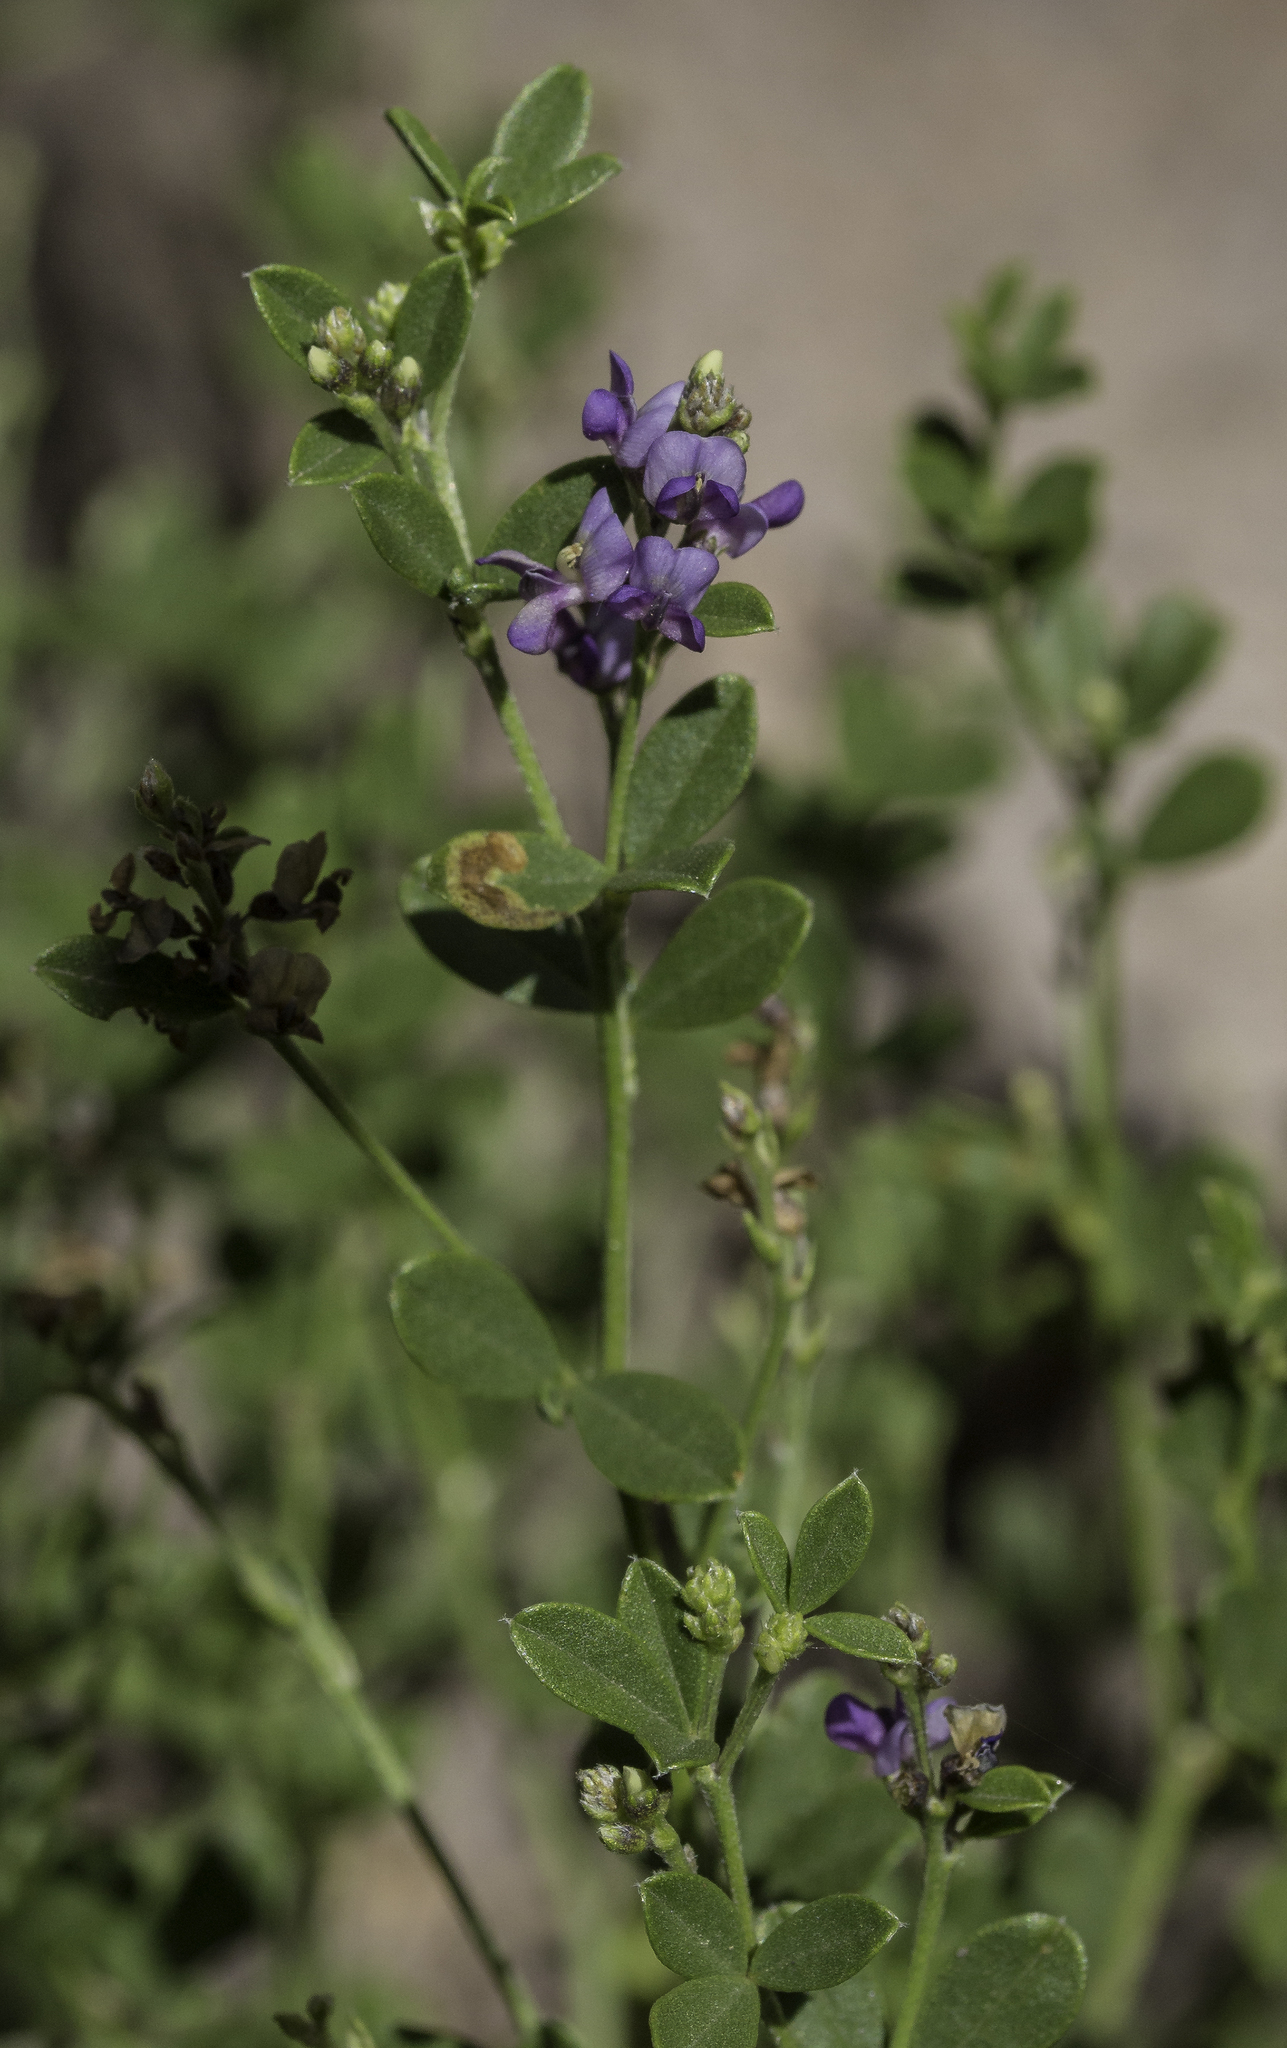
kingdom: Plantae
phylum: Tracheophyta
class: Magnoliopsida
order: Fabales
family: Fabaceae
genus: Pediomelum
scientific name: Pediomelum tenuiflorum
